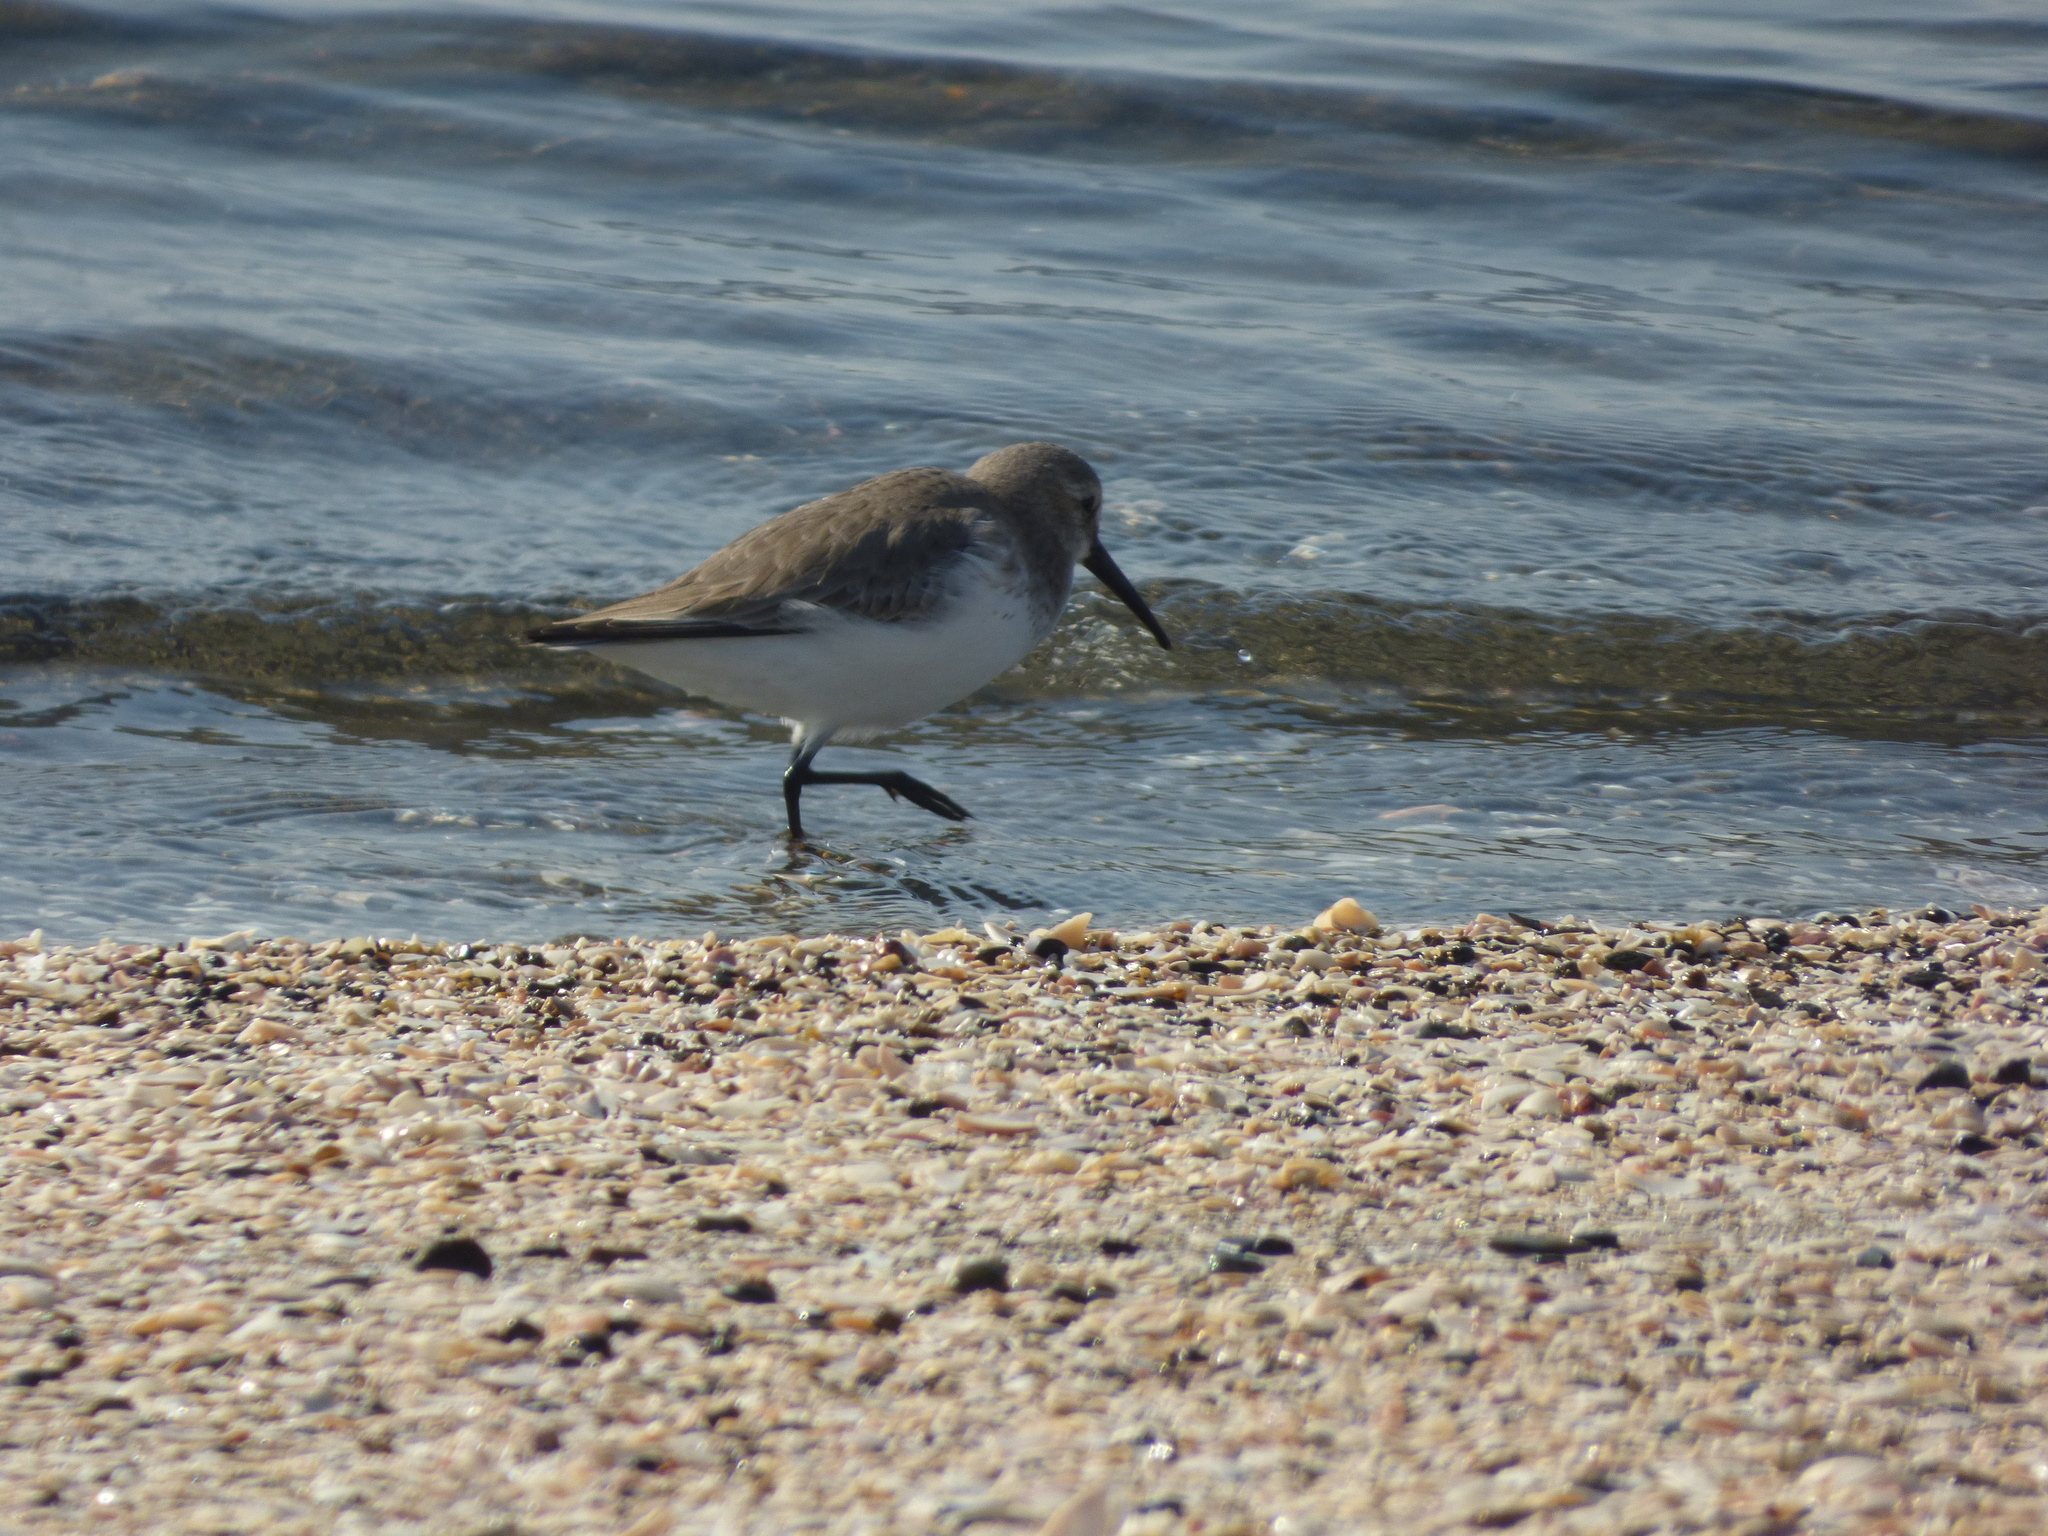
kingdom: Animalia
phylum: Chordata
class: Aves
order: Charadriiformes
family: Scolopacidae
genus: Calidris
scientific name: Calidris alpina
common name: Dunlin
